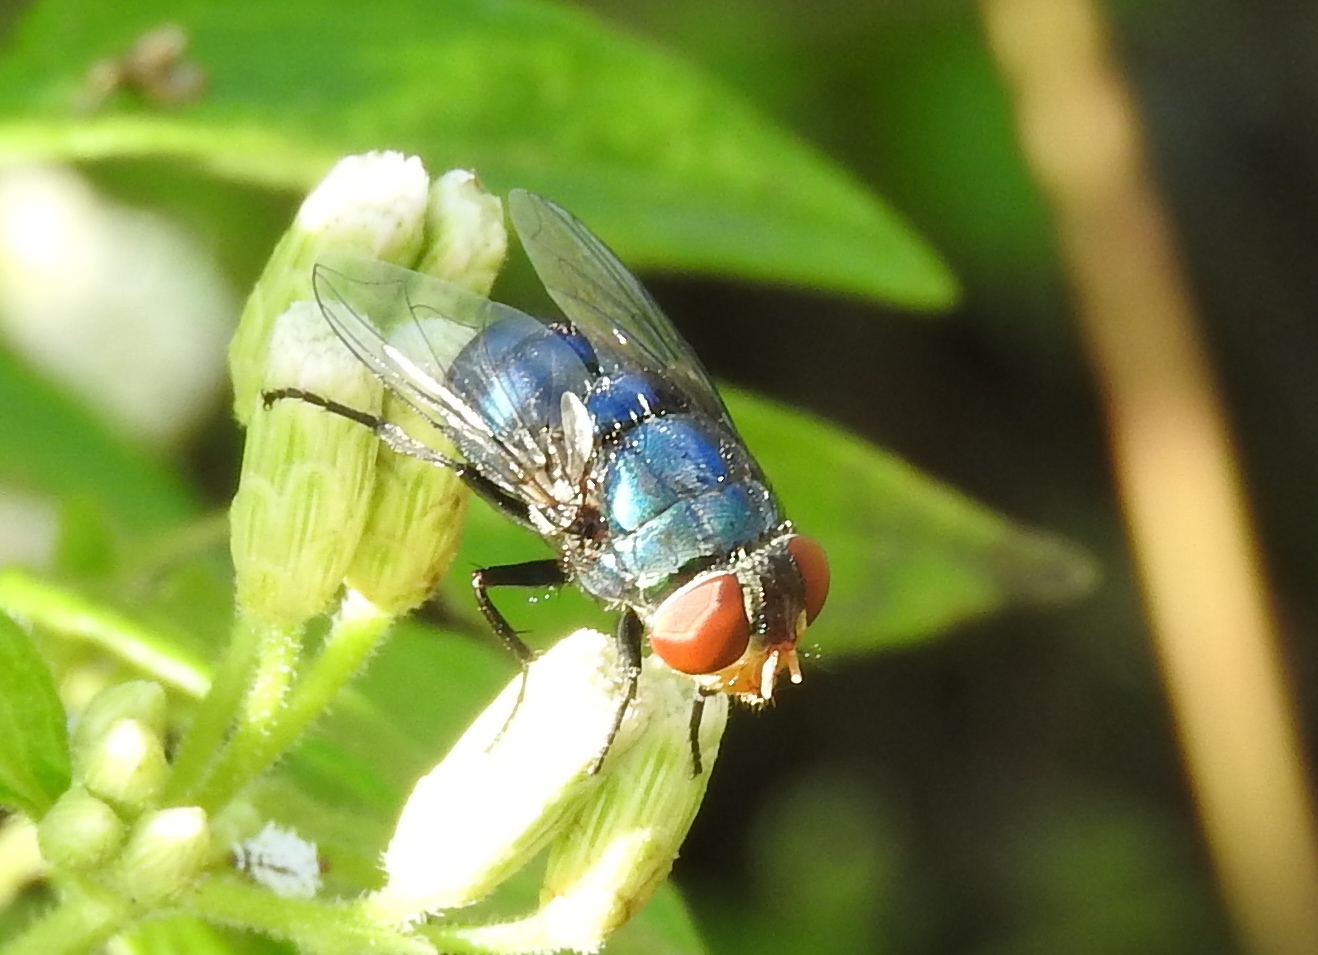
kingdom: Animalia
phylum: Arthropoda
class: Insecta
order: Diptera
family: Calliphoridae
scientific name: Calliphoridae
